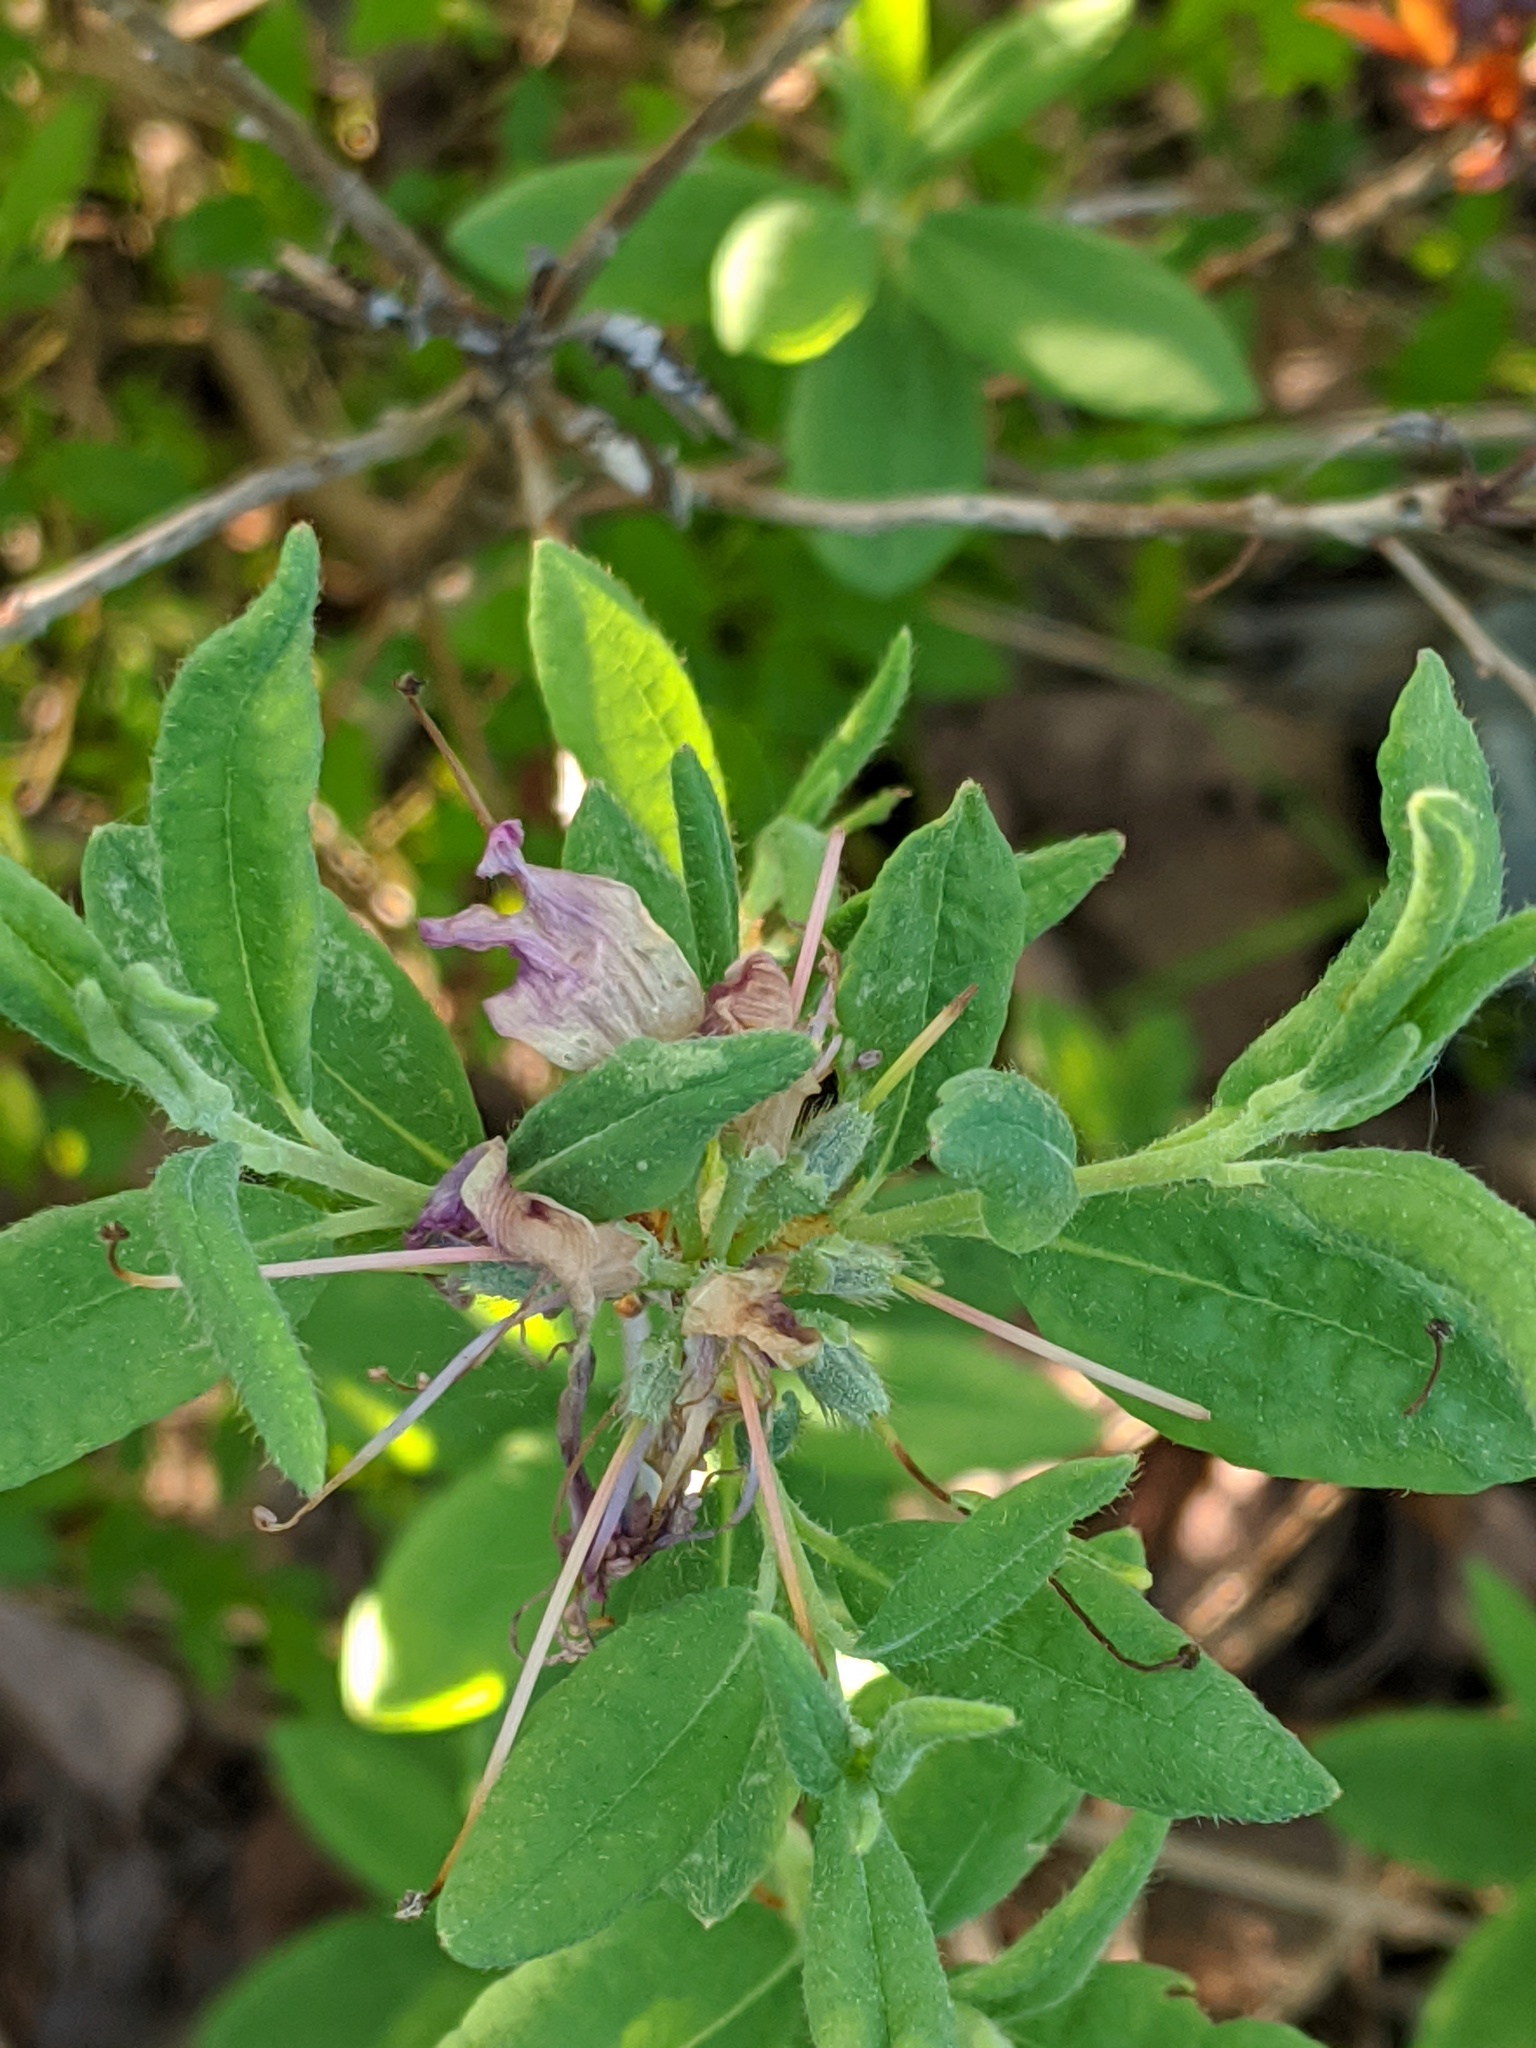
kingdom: Plantae
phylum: Tracheophyta
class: Magnoliopsida
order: Ericales
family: Ericaceae
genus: Rhododendron
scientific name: Rhododendron canadense
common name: Rhodora
